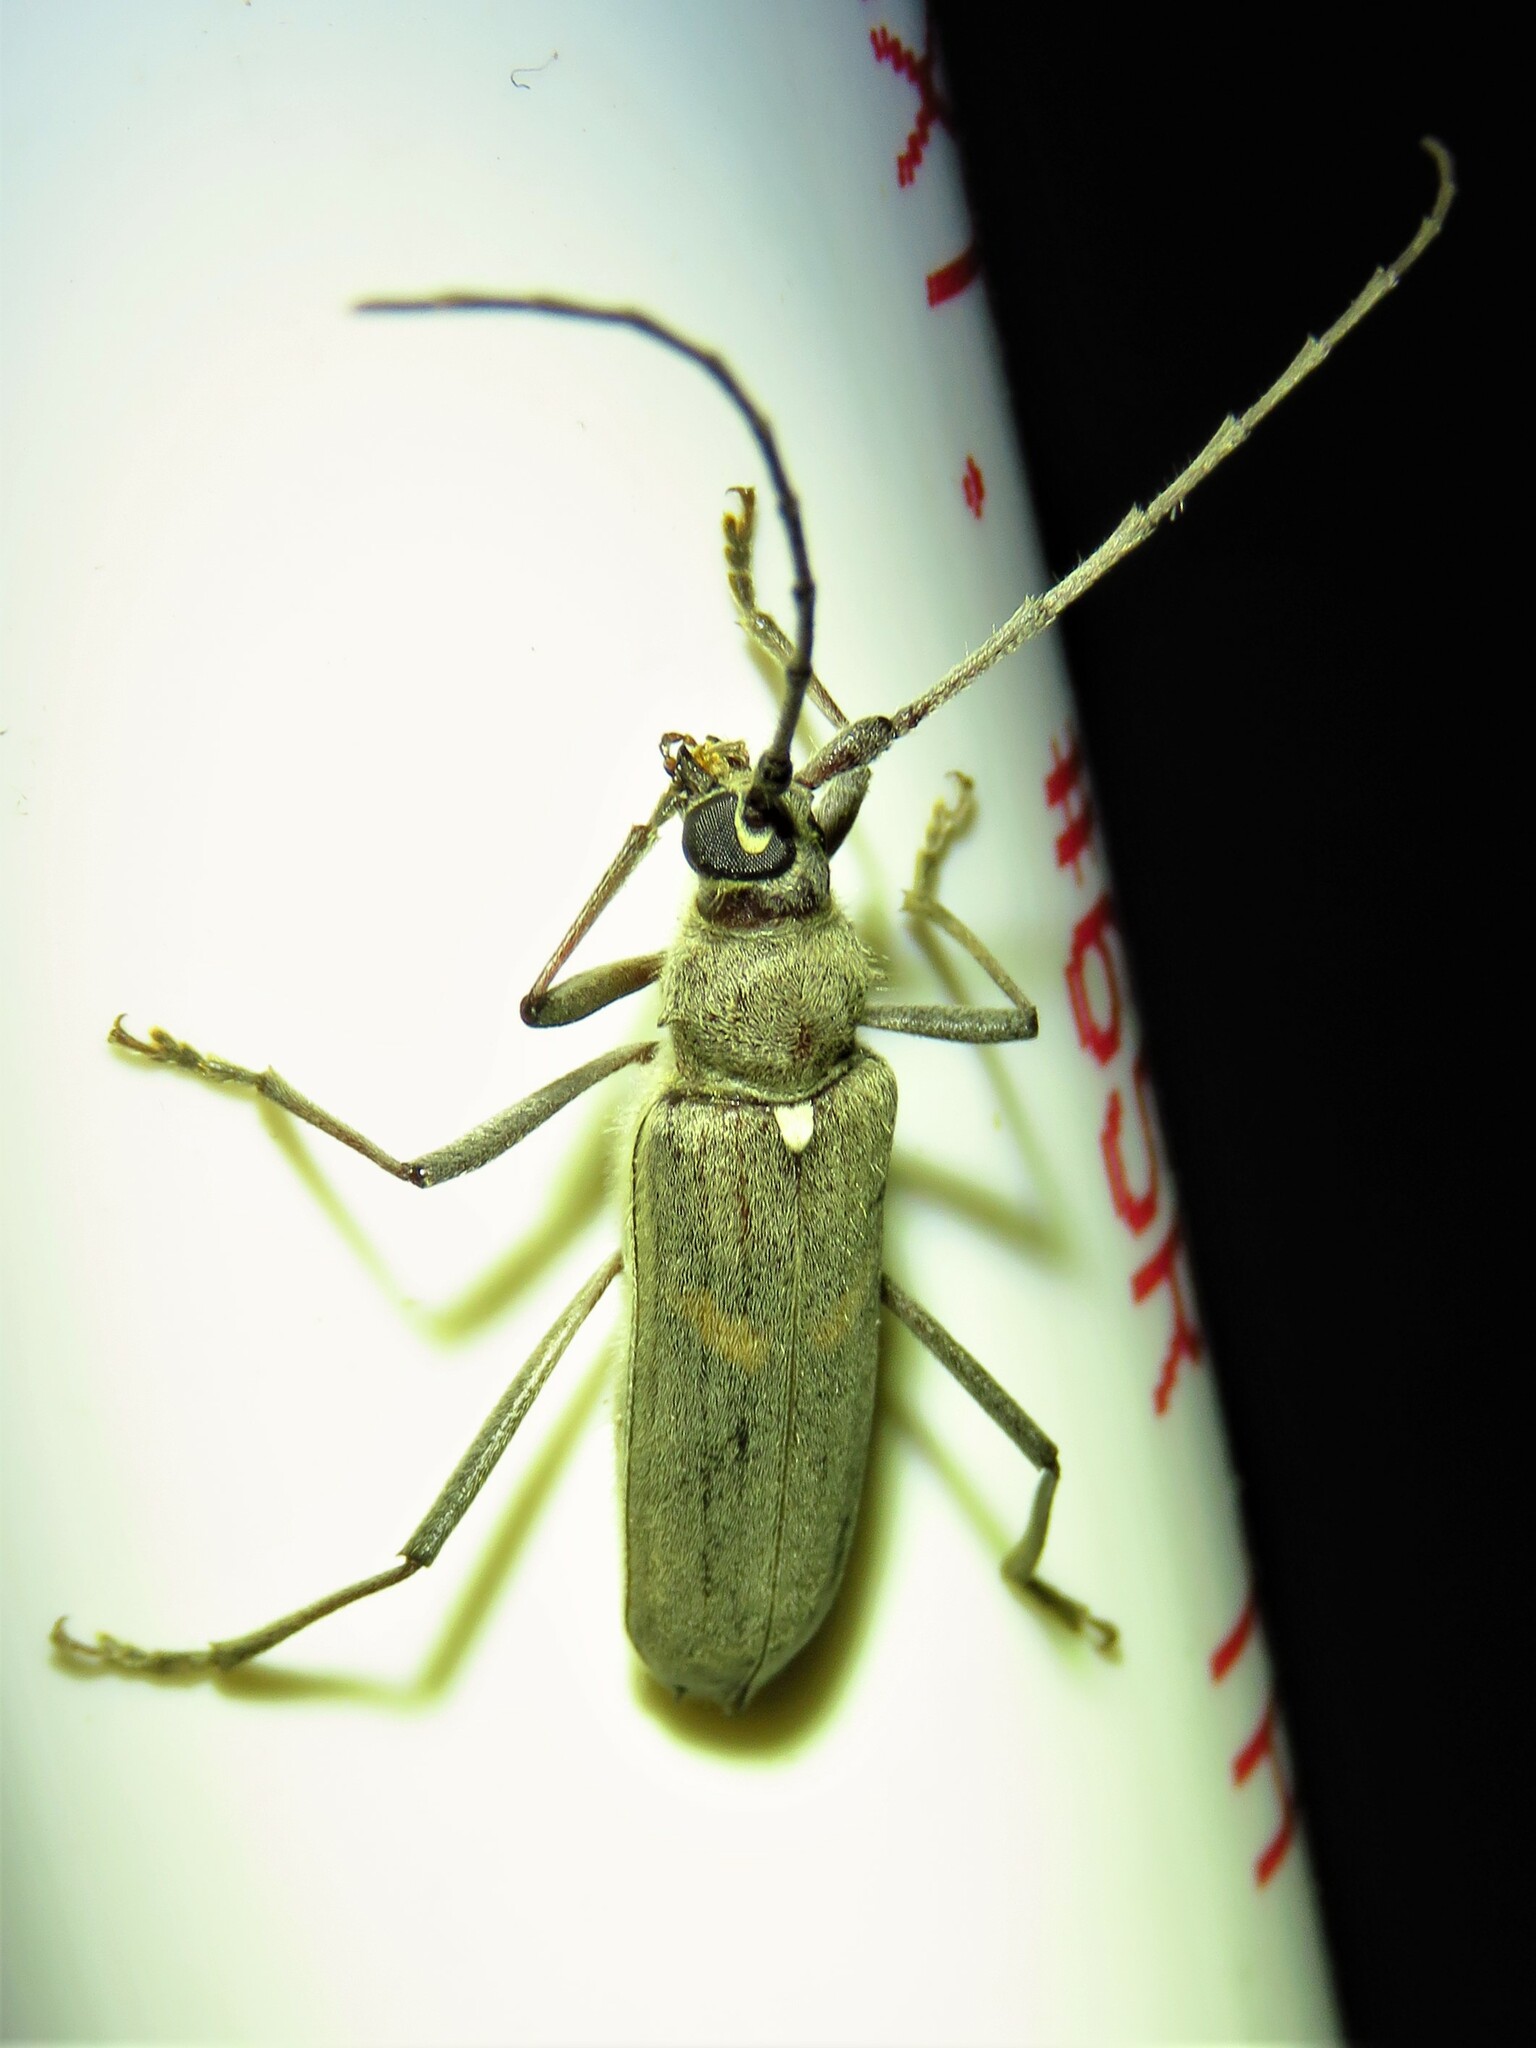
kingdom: Animalia
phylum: Arthropoda
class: Insecta
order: Coleoptera
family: Cerambycidae
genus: Knulliana
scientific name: Knulliana cincta
